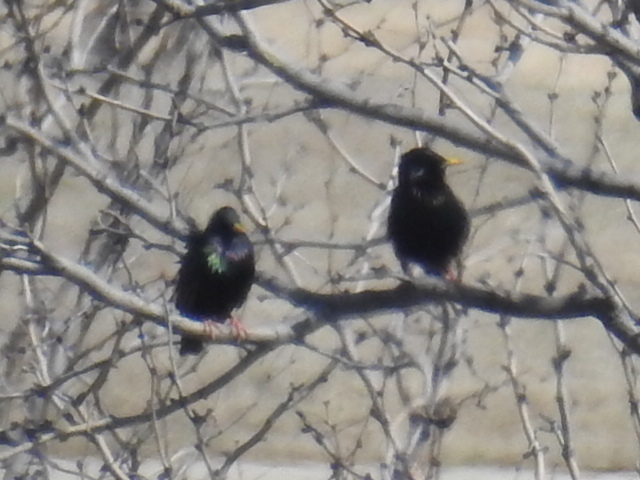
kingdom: Animalia
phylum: Chordata
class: Aves
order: Passeriformes
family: Sturnidae
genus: Sturnus
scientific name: Sturnus vulgaris
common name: Common starling
